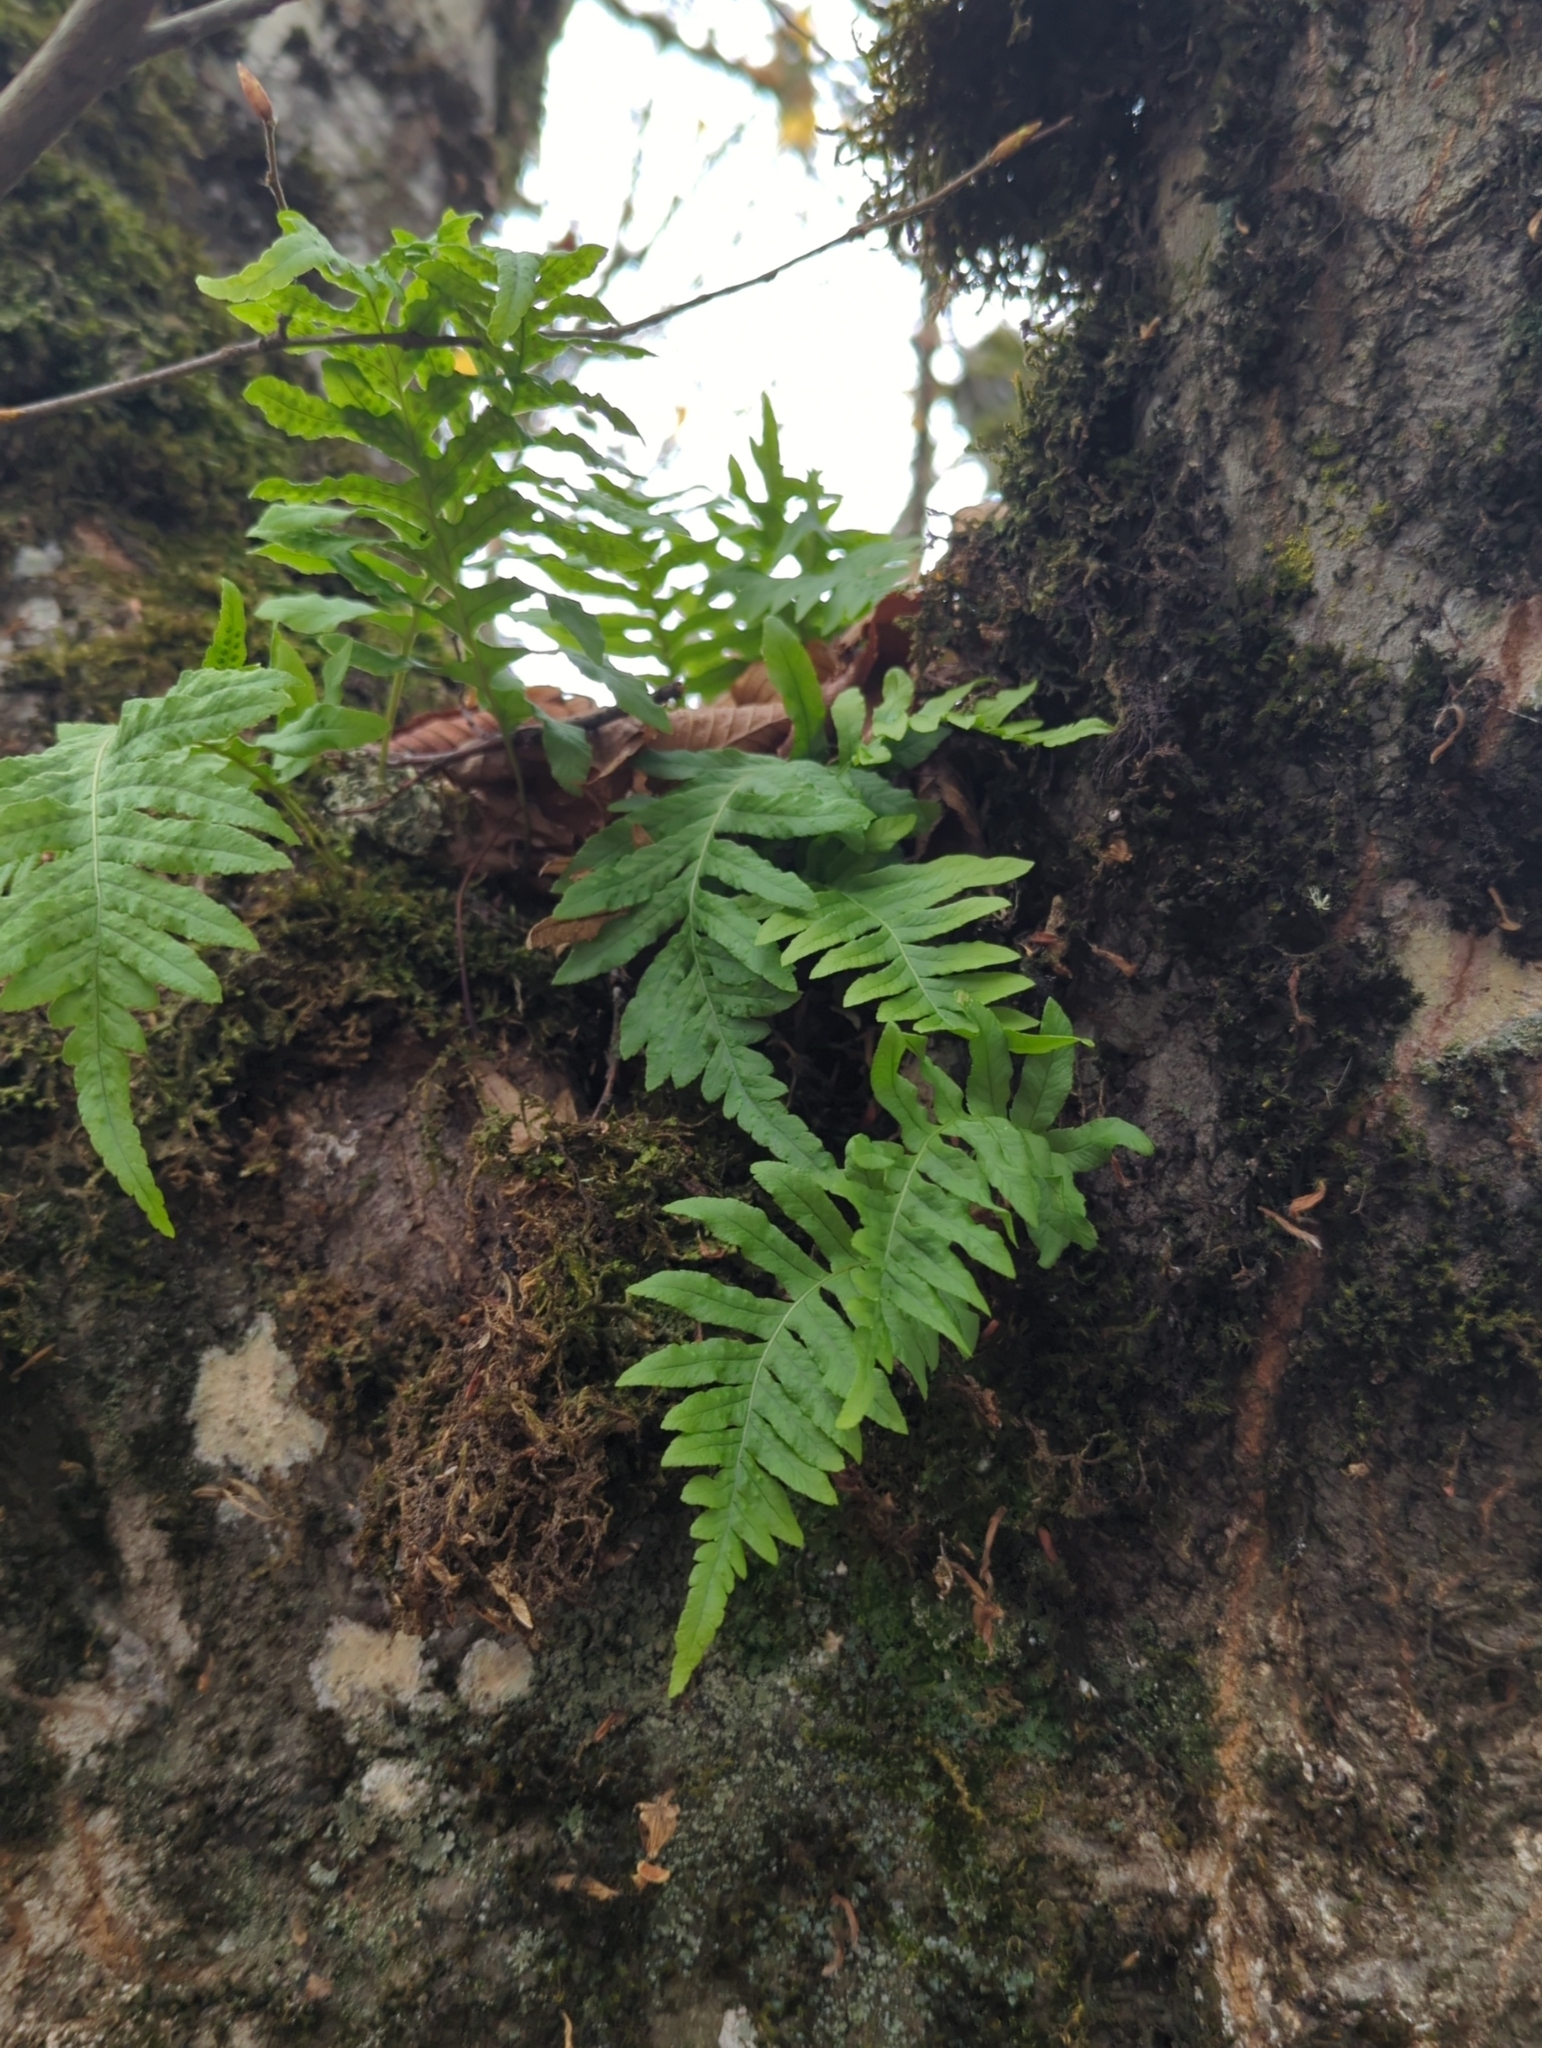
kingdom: Plantae
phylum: Tracheophyta
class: Polypodiopsida
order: Polypodiales
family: Polypodiaceae
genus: Polypodium
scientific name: Polypodium glycyrrhiza
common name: Licorice fern
